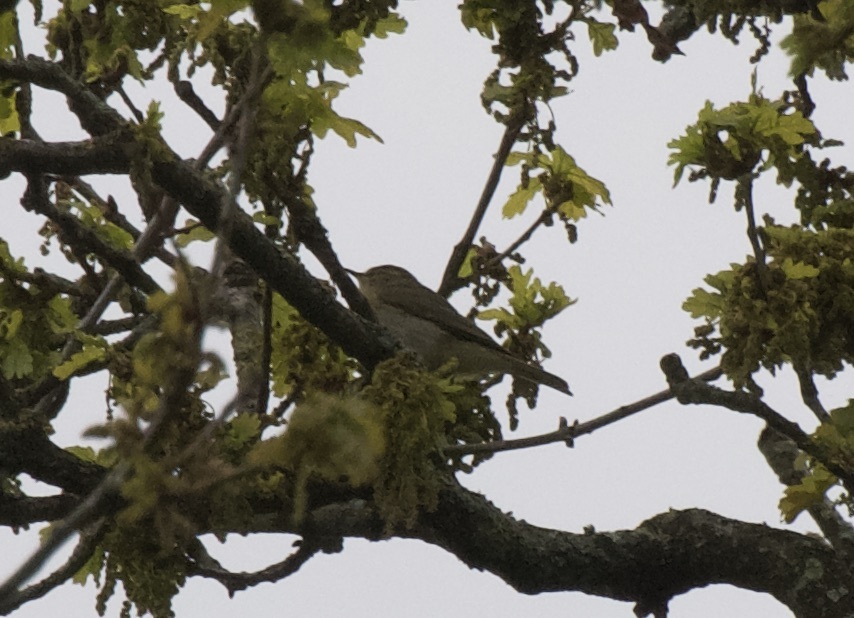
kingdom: Animalia
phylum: Chordata
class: Aves
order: Passeriformes
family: Phylloscopidae
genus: Phylloscopus
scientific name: Phylloscopus collybita
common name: Common chiffchaff
